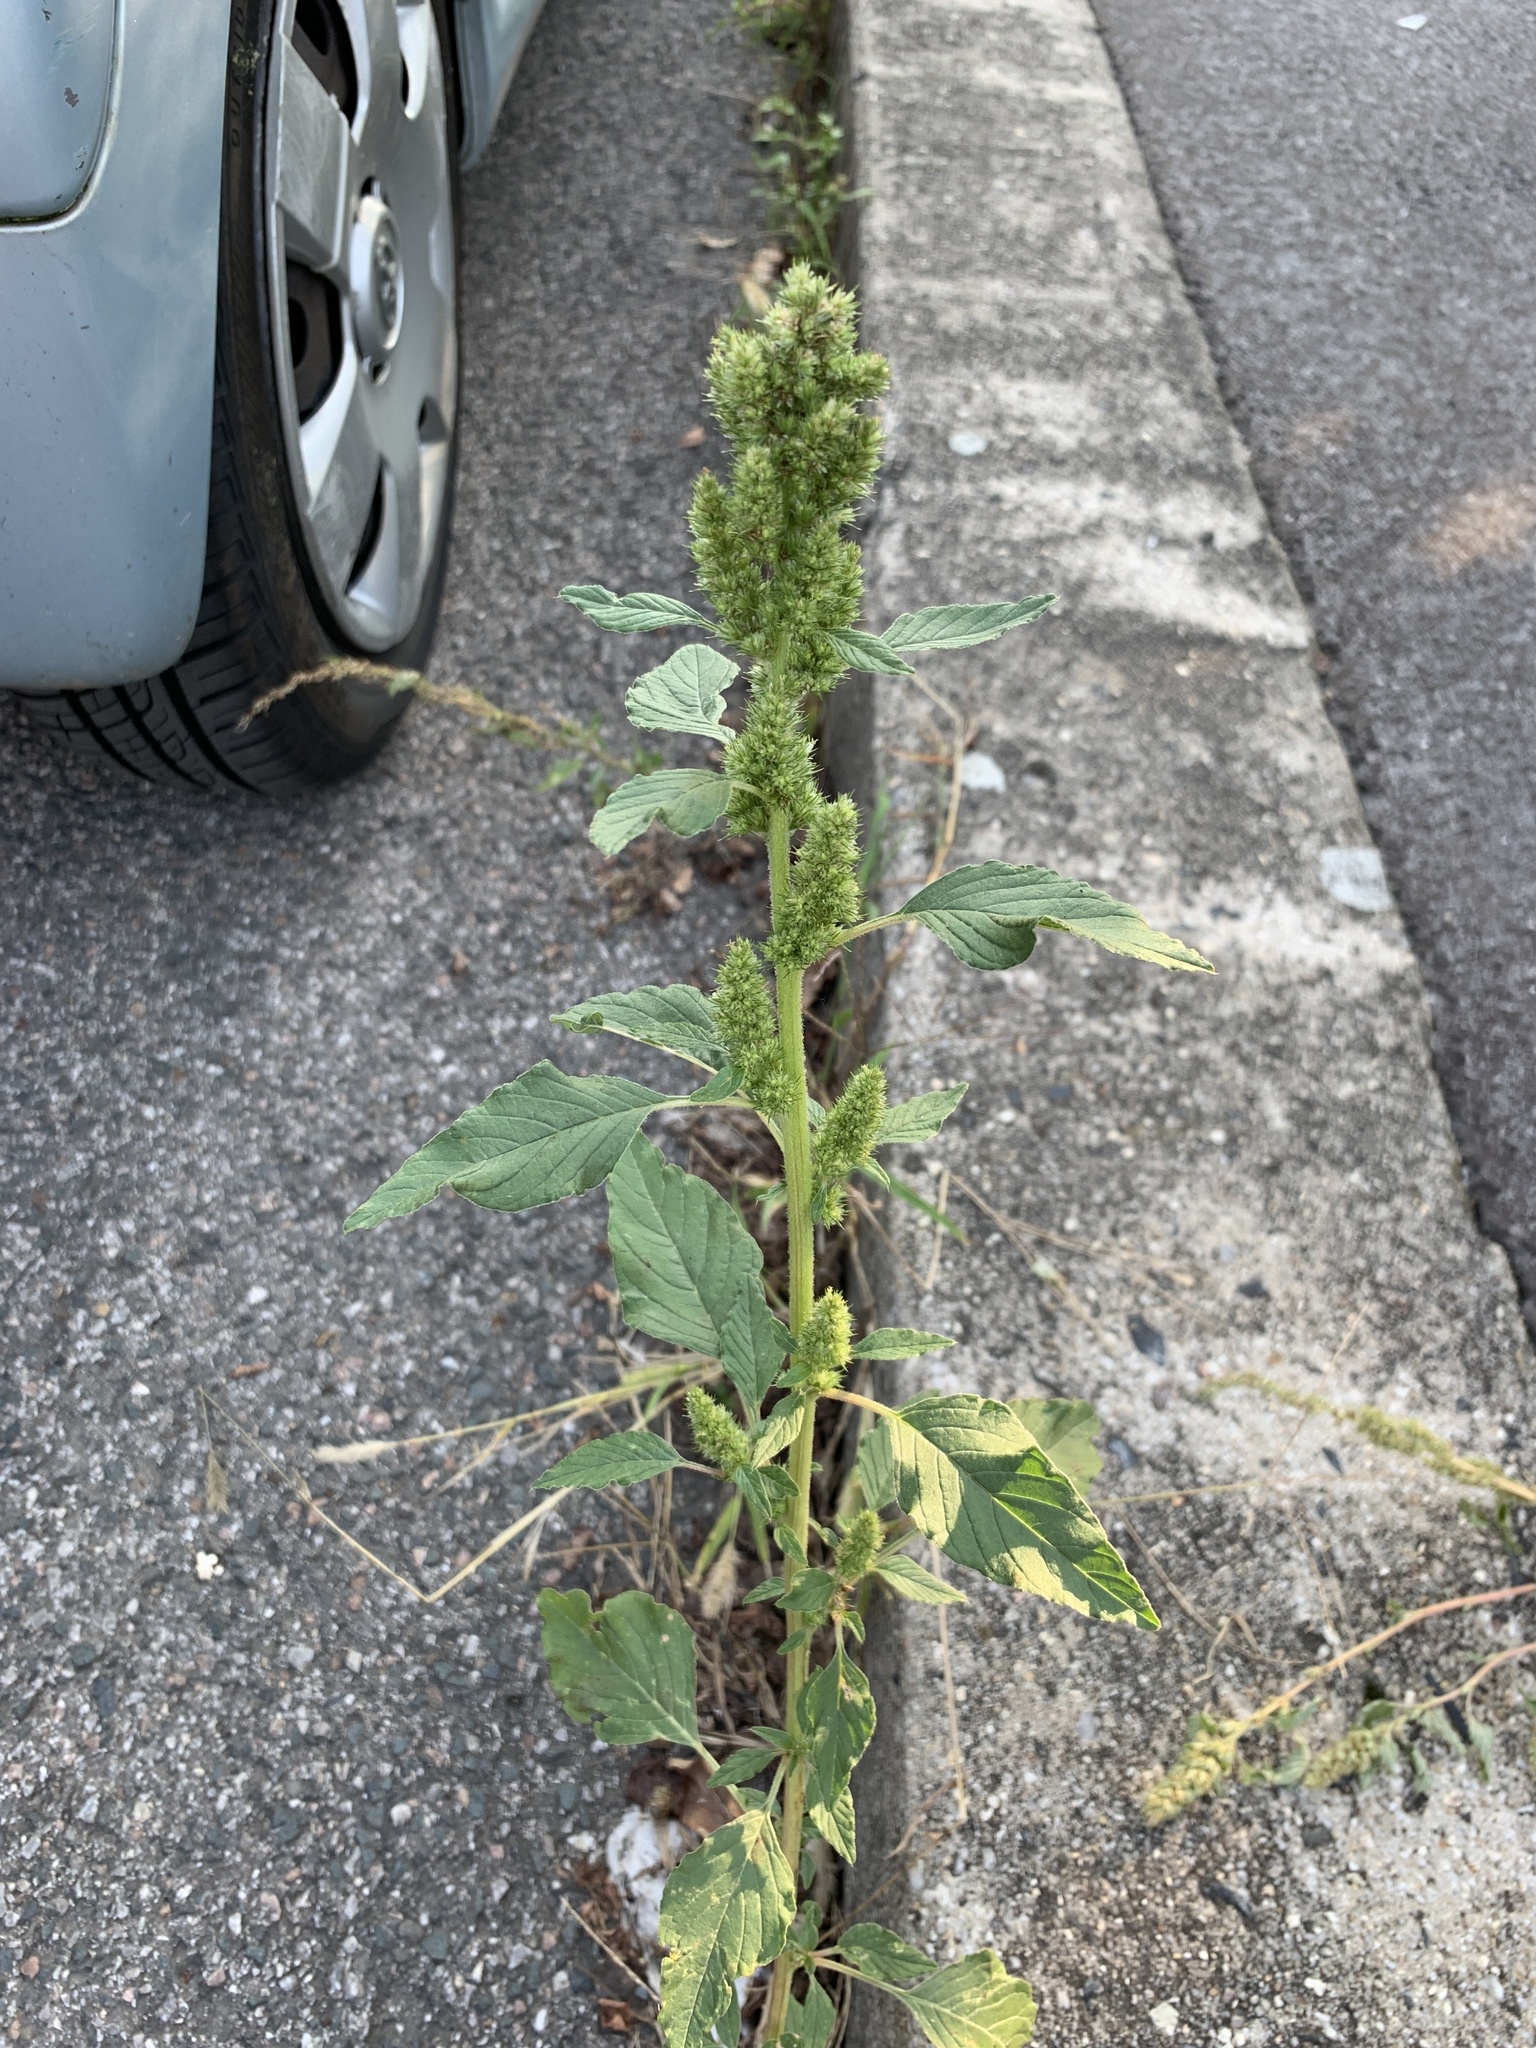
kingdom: Plantae
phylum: Tracheophyta
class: Magnoliopsida
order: Caryophyllales
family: Amaranthaceae
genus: Amaranthus
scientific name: Amaranthus retroflexus
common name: Redroot amaranth
